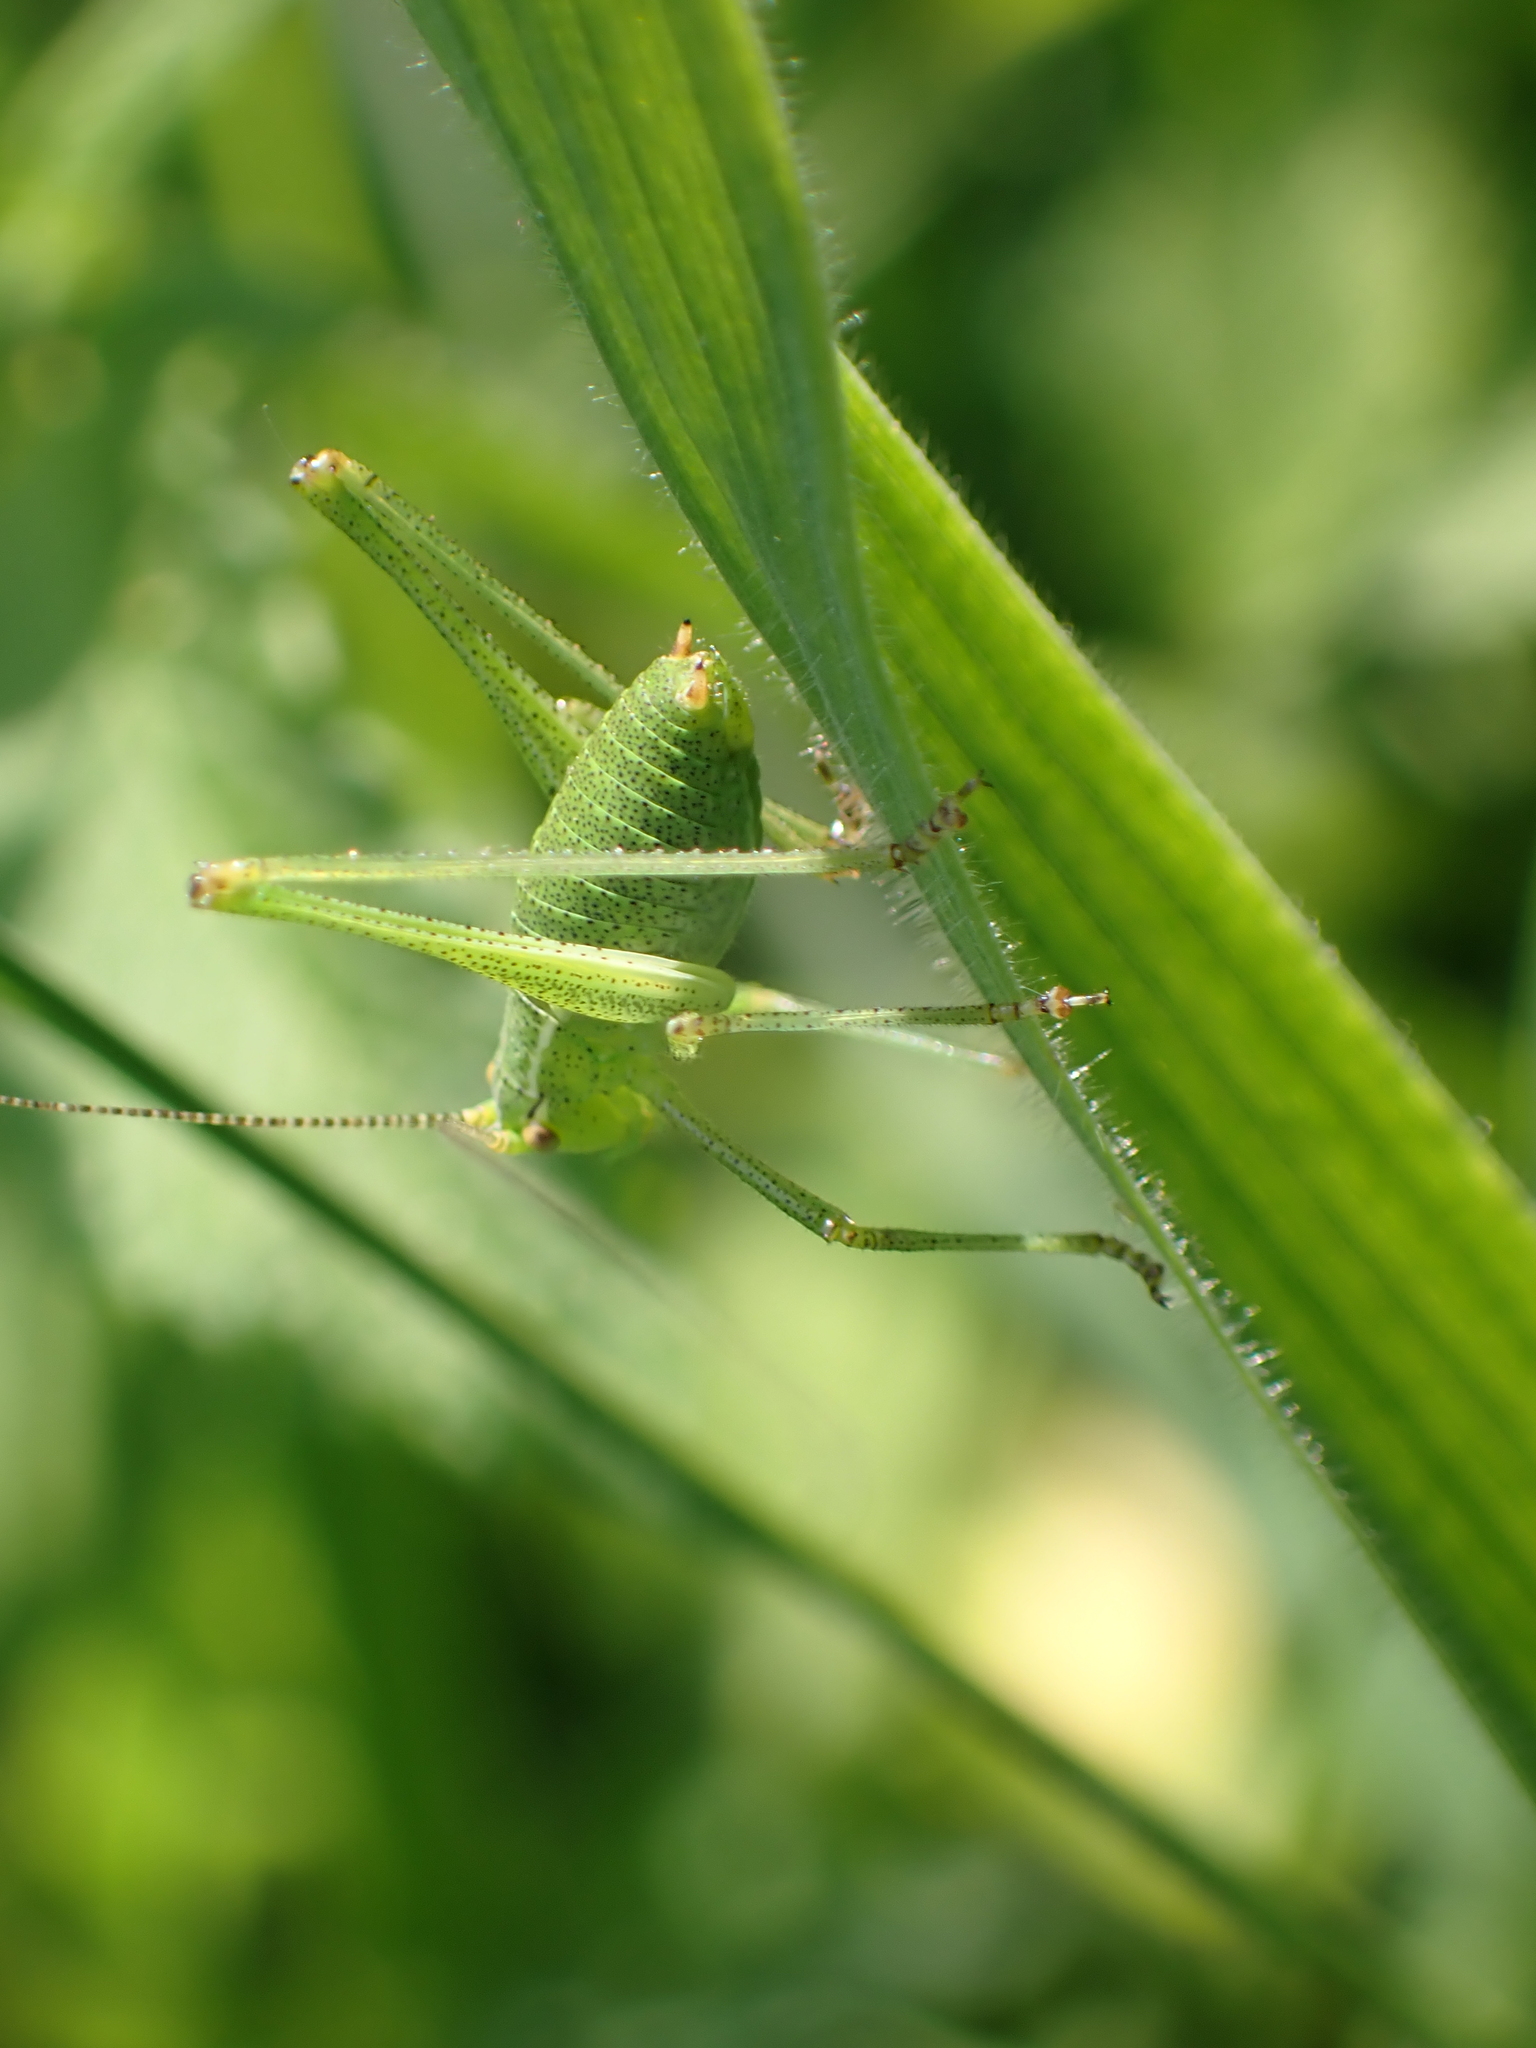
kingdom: Animalia
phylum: Arthropoda
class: Insecta
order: Orthoptera
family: Tettigoniidae
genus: Leptophyes
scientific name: Leptophyes punctatissima
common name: Speckled bush-cricket
